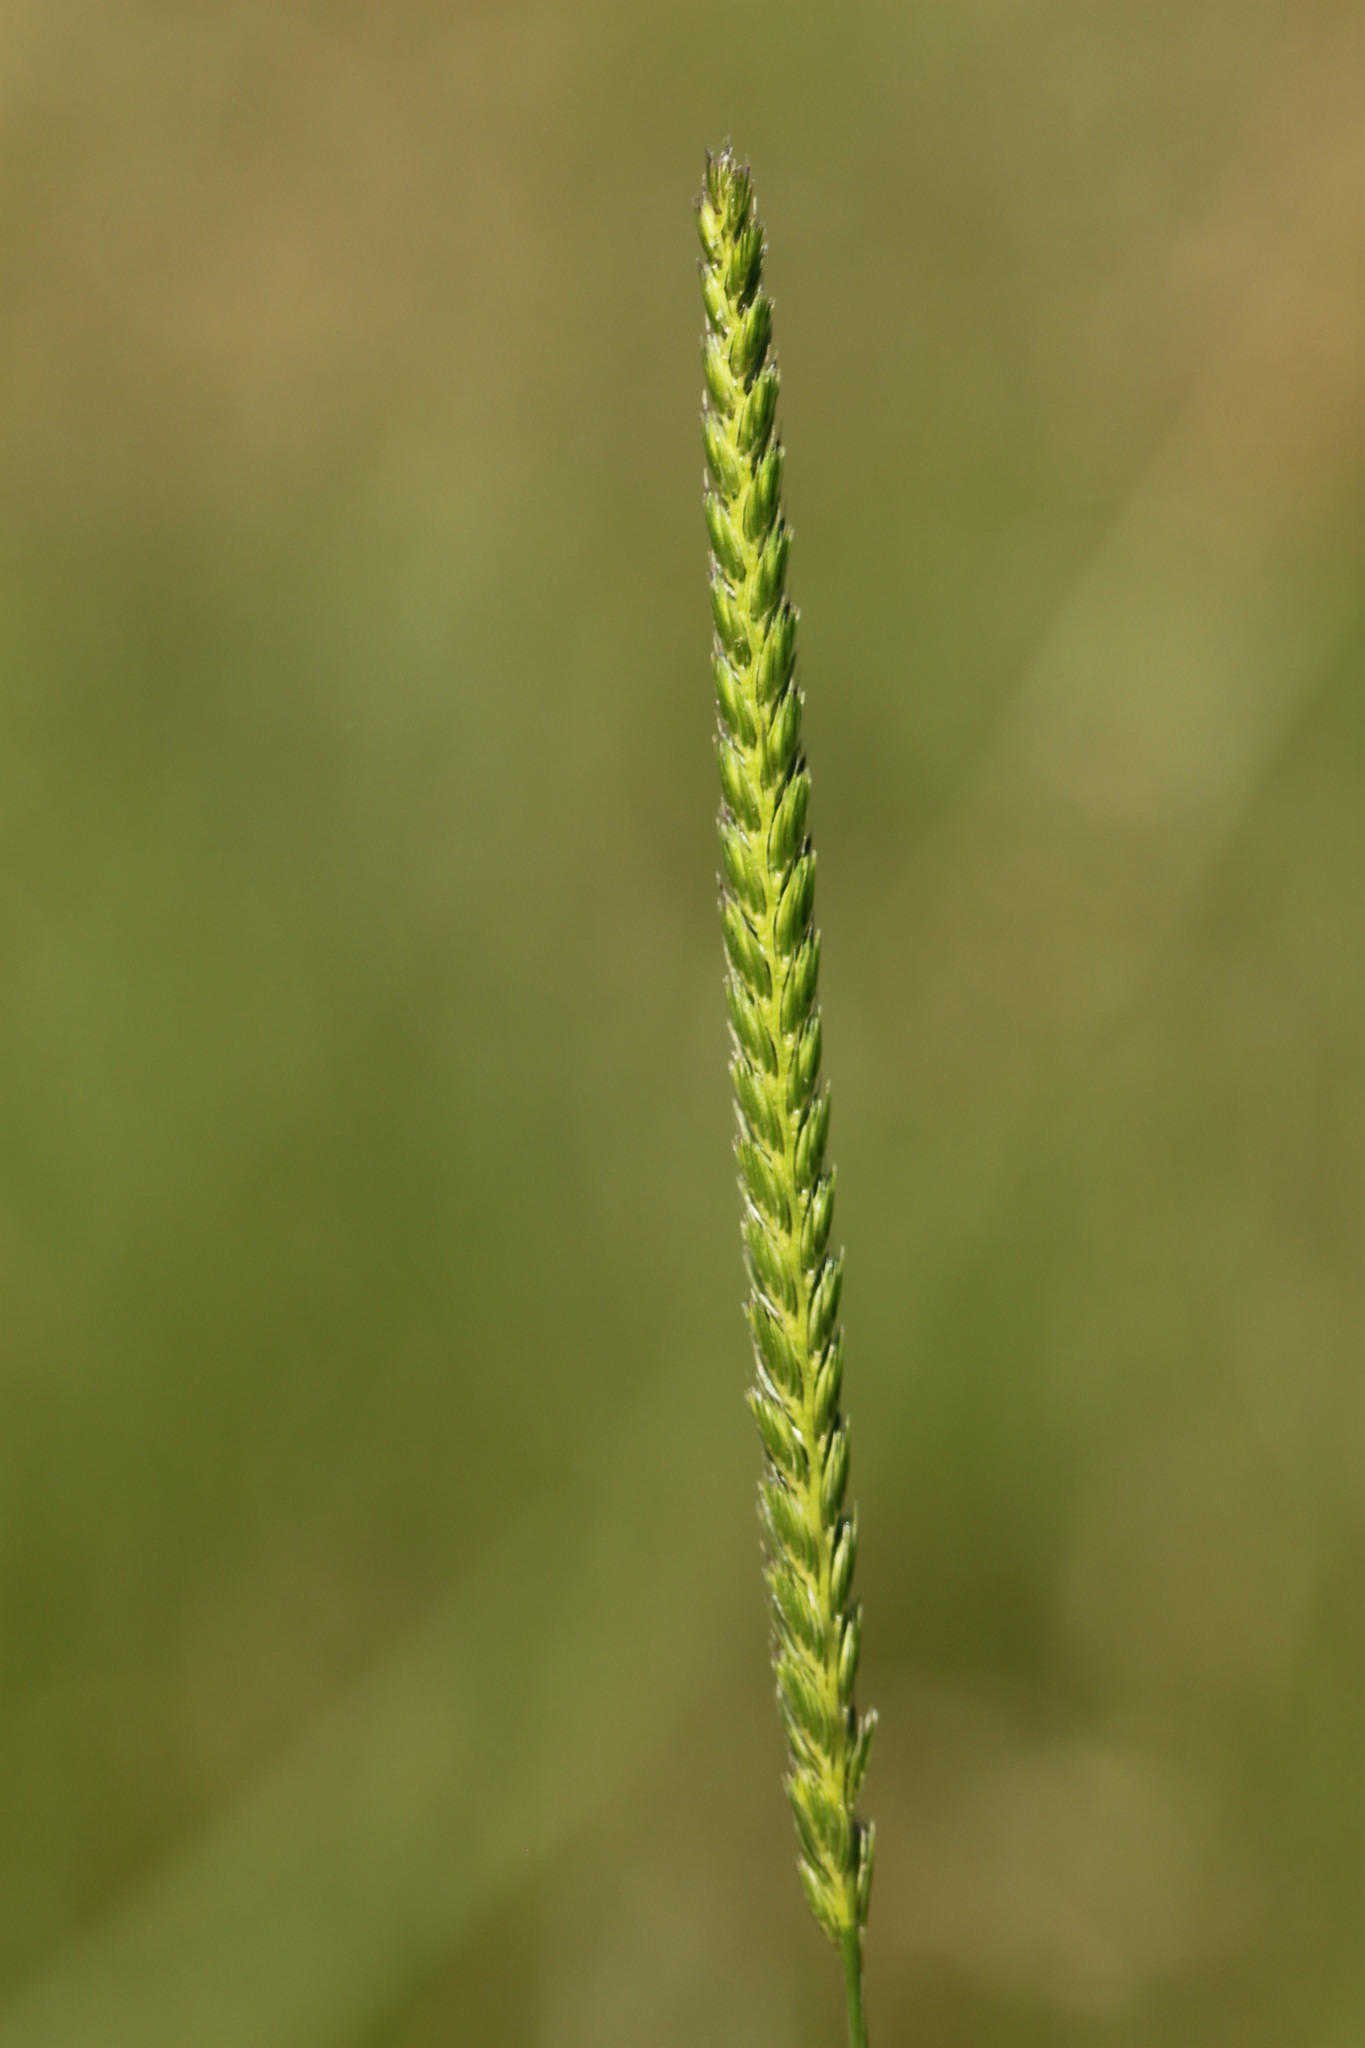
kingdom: Plantae
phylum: Tracheophyta
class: Liliopsida
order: Poales
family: Poaceae
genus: Cynosurus
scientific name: Cynosurus cristatus
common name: Crested dog's-tail
